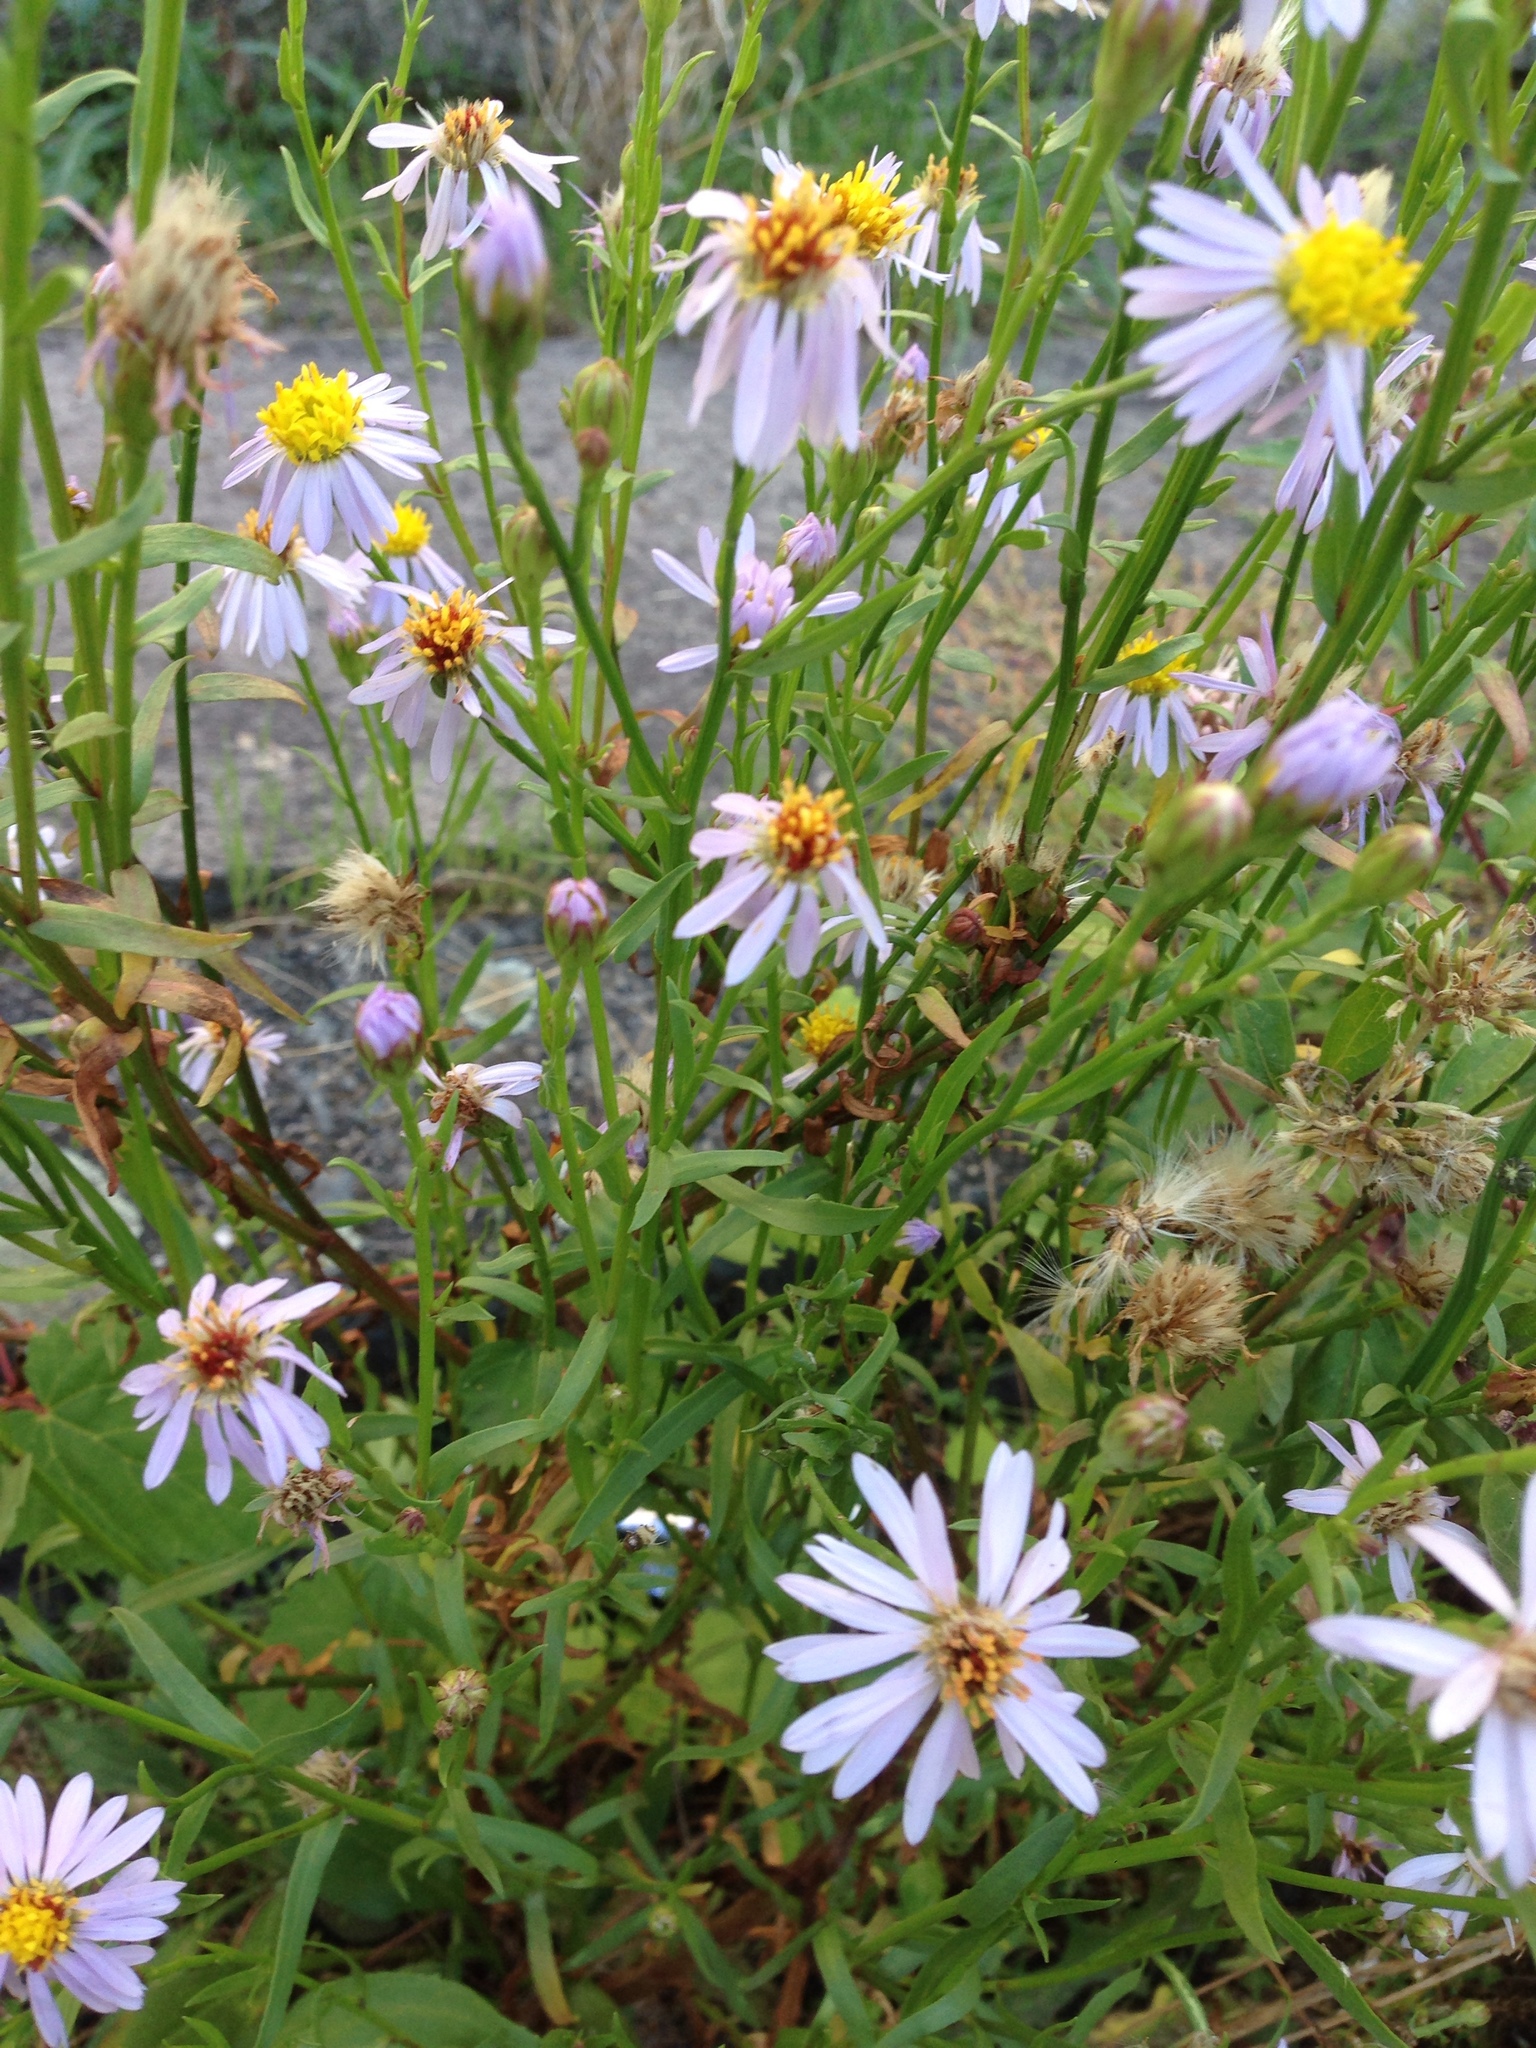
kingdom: Plantae
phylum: Tracheophyta
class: Magnoliopsida
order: Asterales
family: Asteraceae
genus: Tripolium
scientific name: Tripolium pannonicum
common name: Sea aster
